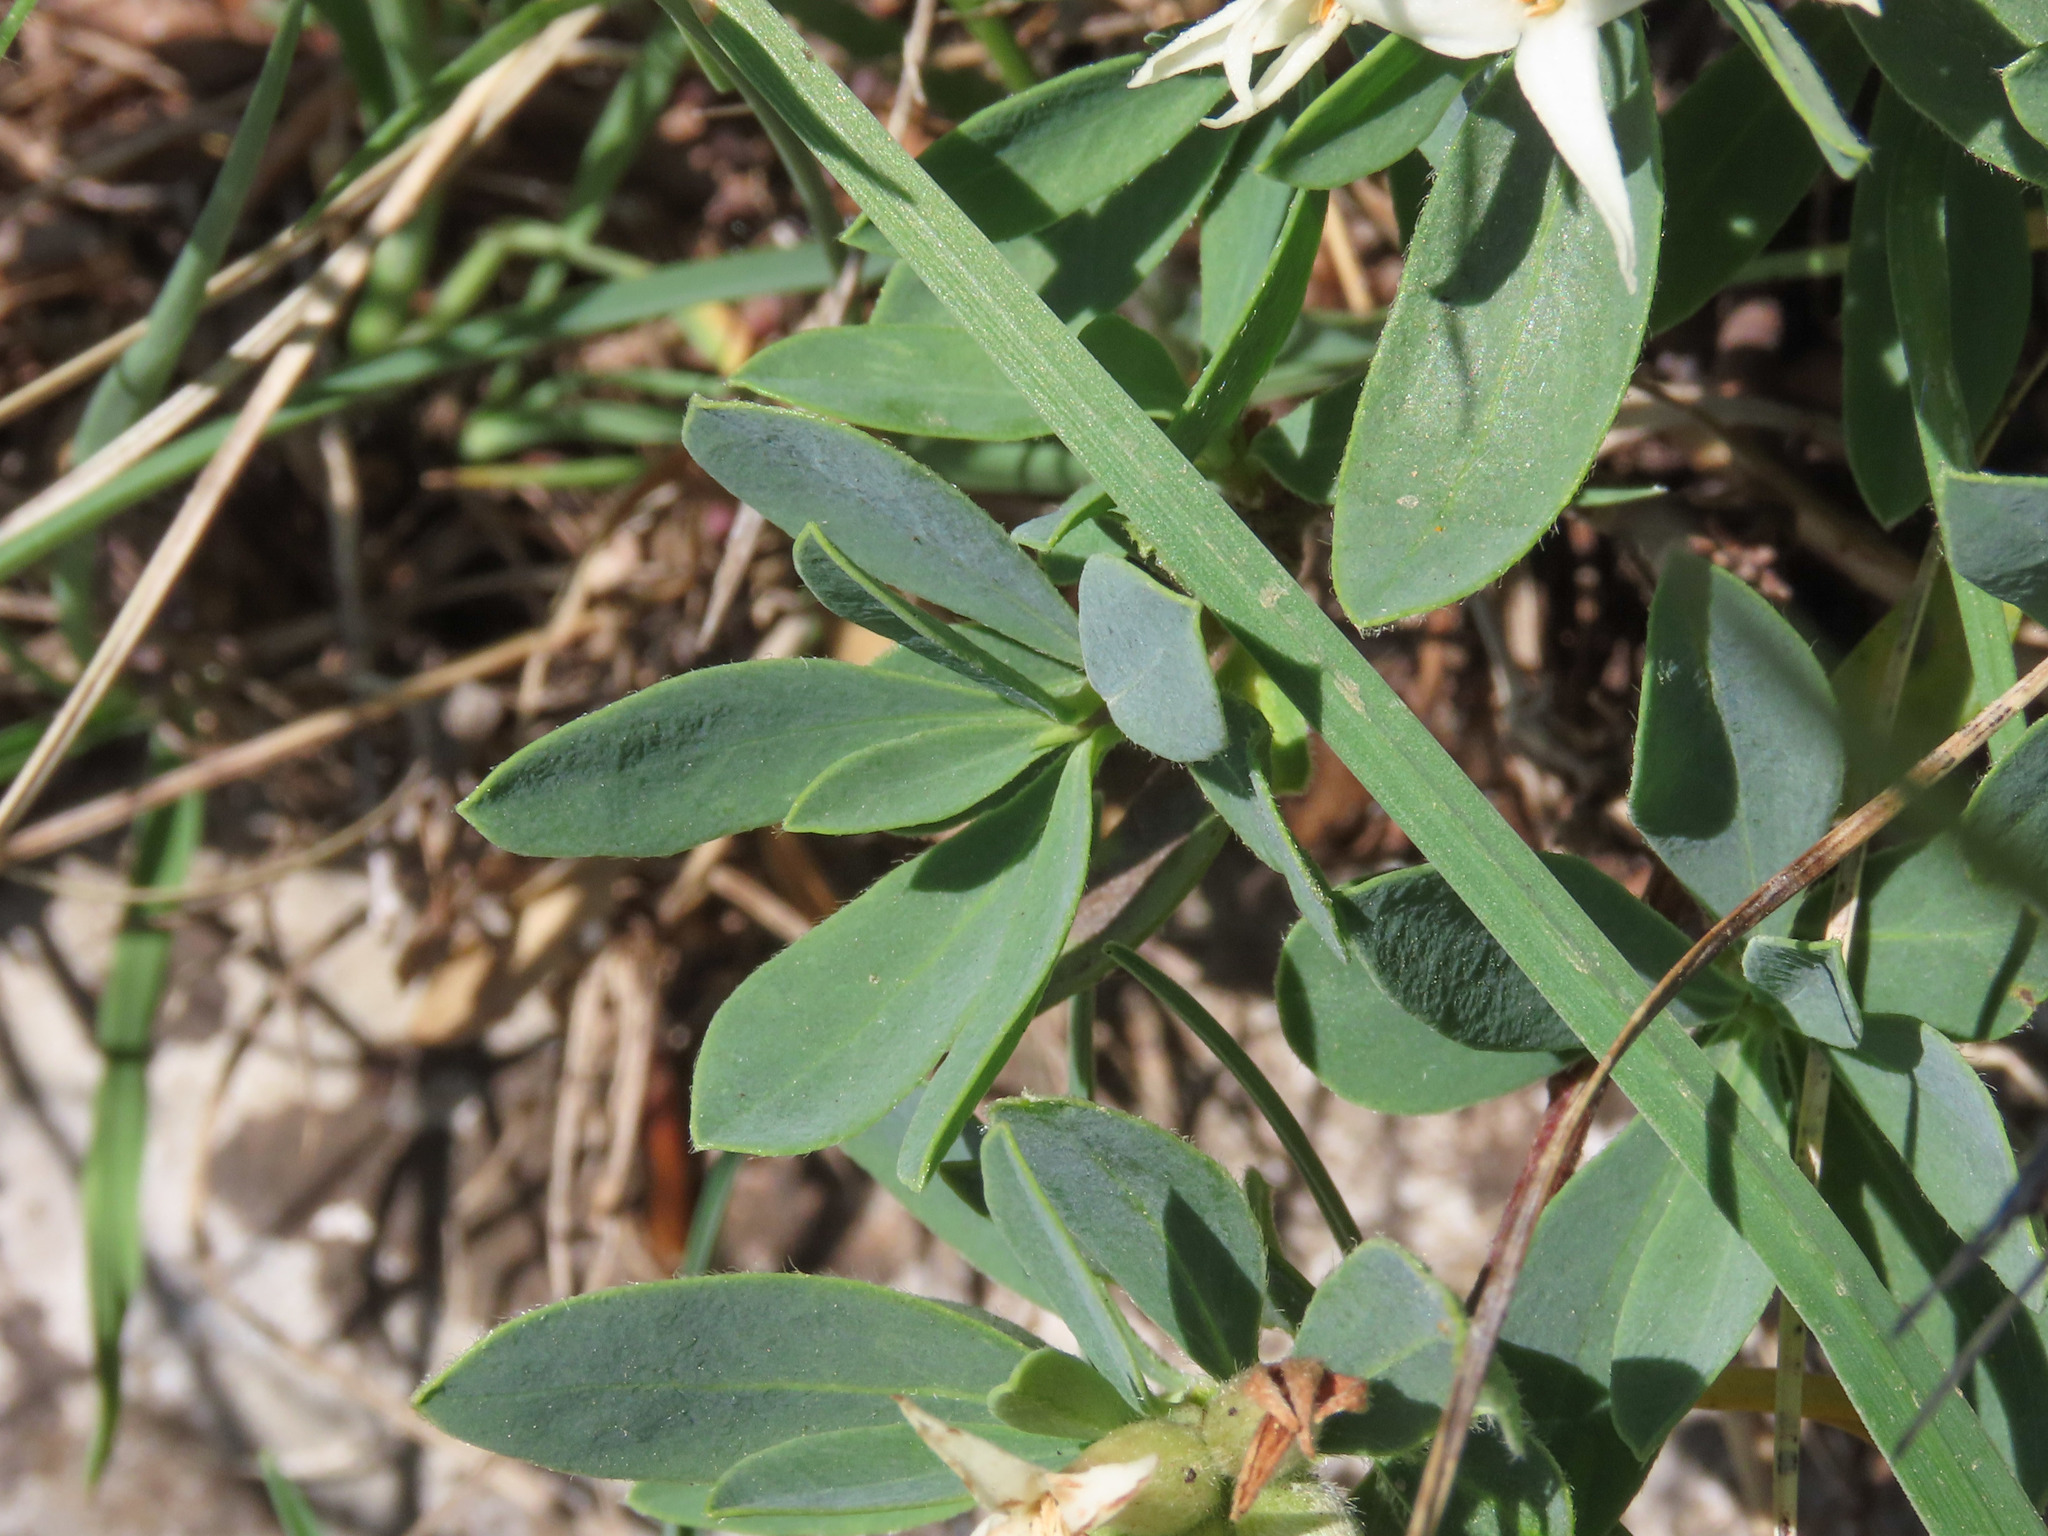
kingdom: Plantae
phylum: Tracheophyta
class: Magnoliopsida
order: Malvales
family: Thymelaeaceae
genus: Daphne
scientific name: Daphne oleoides
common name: Spurge-olive
